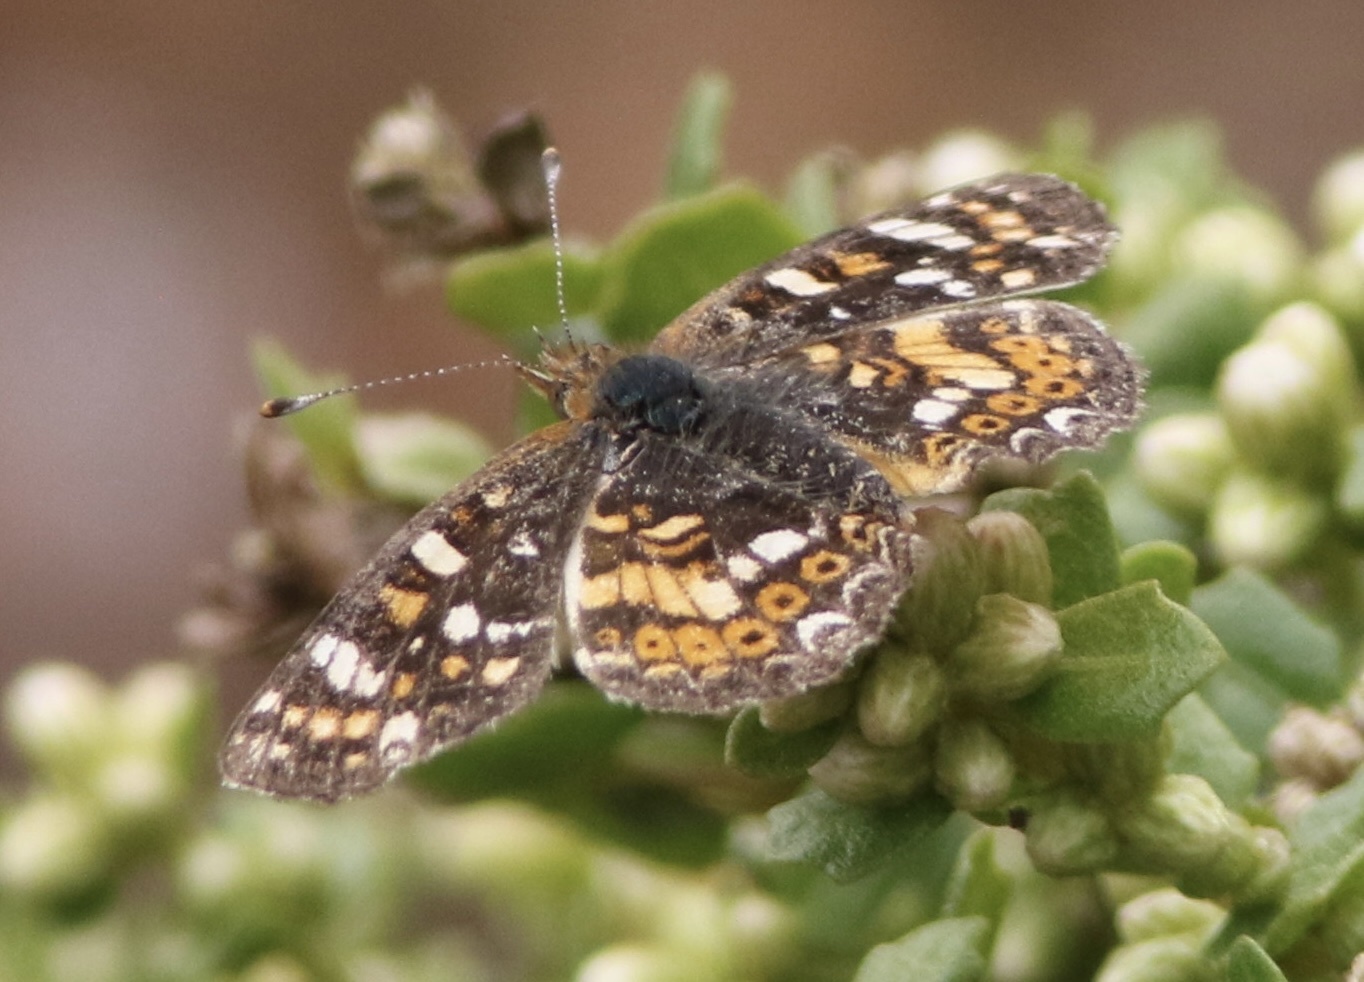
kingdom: Animalia
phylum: Arthropoda
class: Insecta
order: Lepidoptera
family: Nymphalidae
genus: Phyciodes
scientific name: Phyciodes tharos
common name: Pearl crescent
